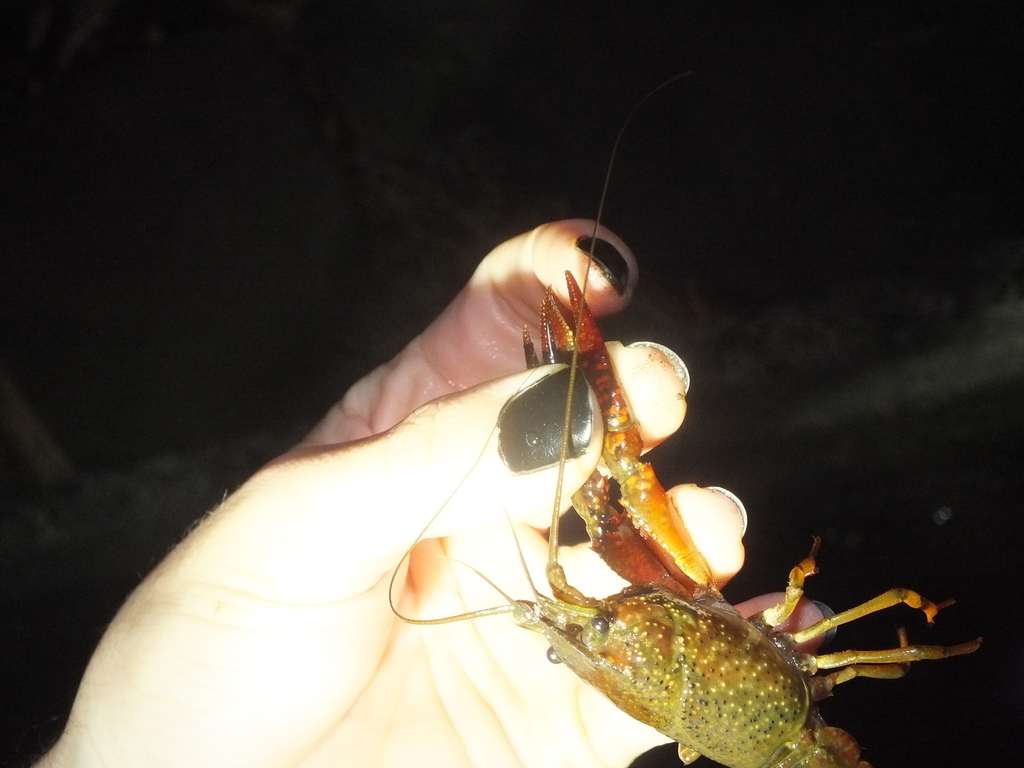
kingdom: Animalia
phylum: Arthropoda
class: Malacostraca
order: Decapoda
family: Cambaridae
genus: Procambarus
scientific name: Procambarus clarkii
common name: Red swamp crayfish
